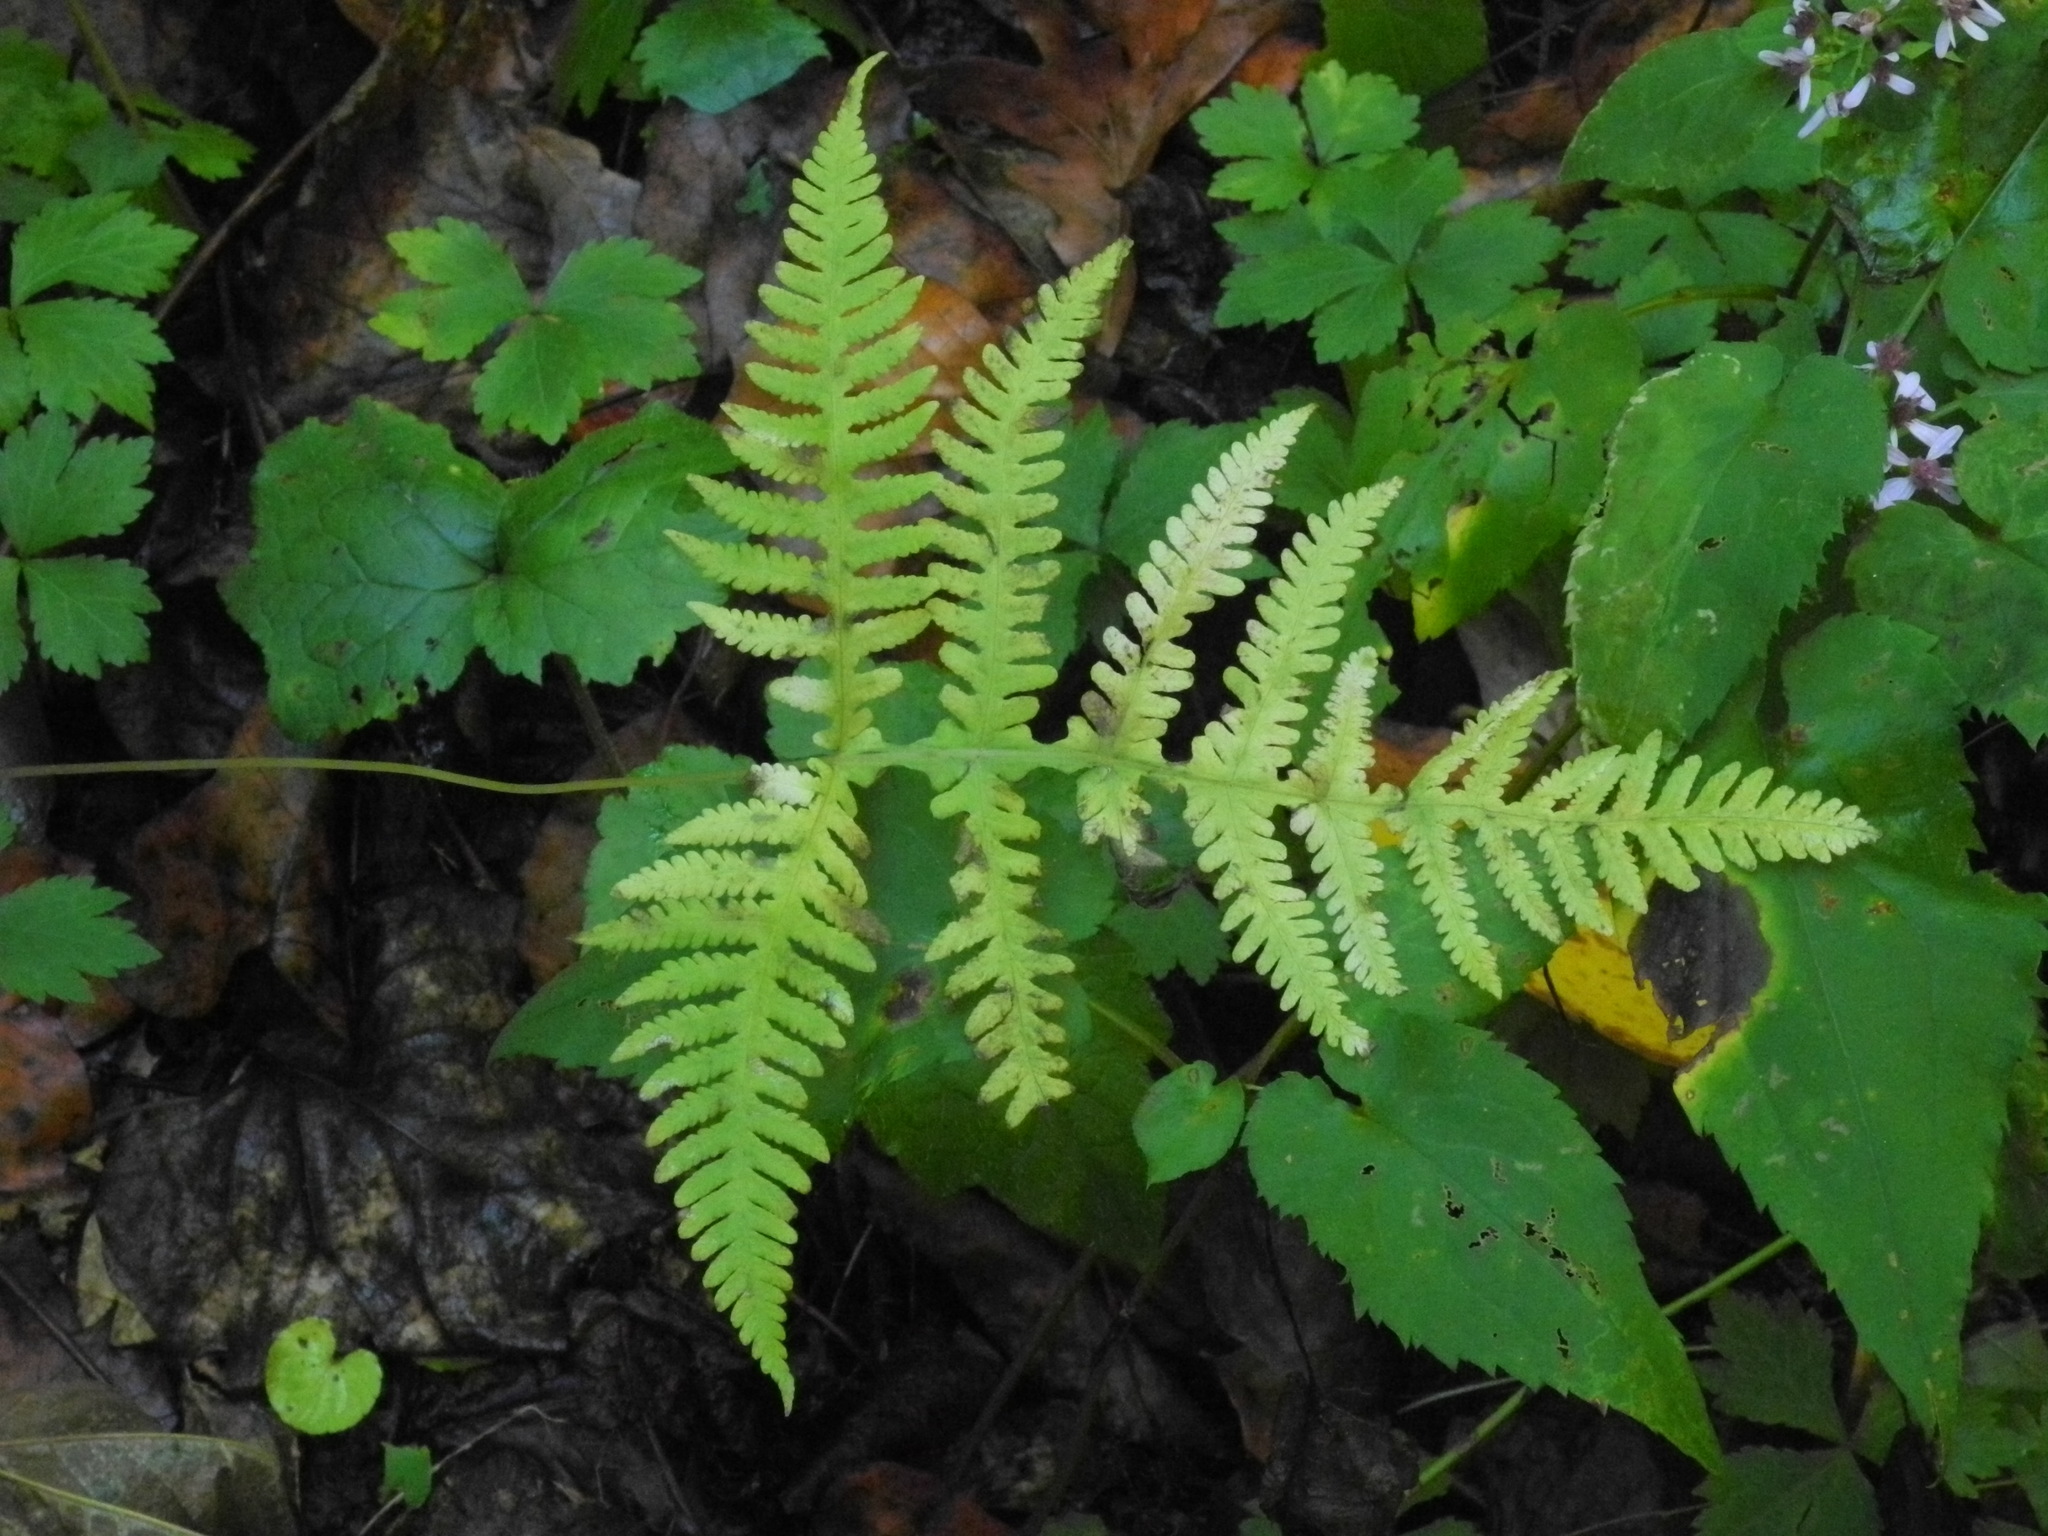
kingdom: Plantae
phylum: Tracheophyta
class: Polypodiopsida
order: Polypodiales
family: Thelypteridaceae
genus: Phegopteris
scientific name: Phegopteris hexagonoptera
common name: Broad beech fern
